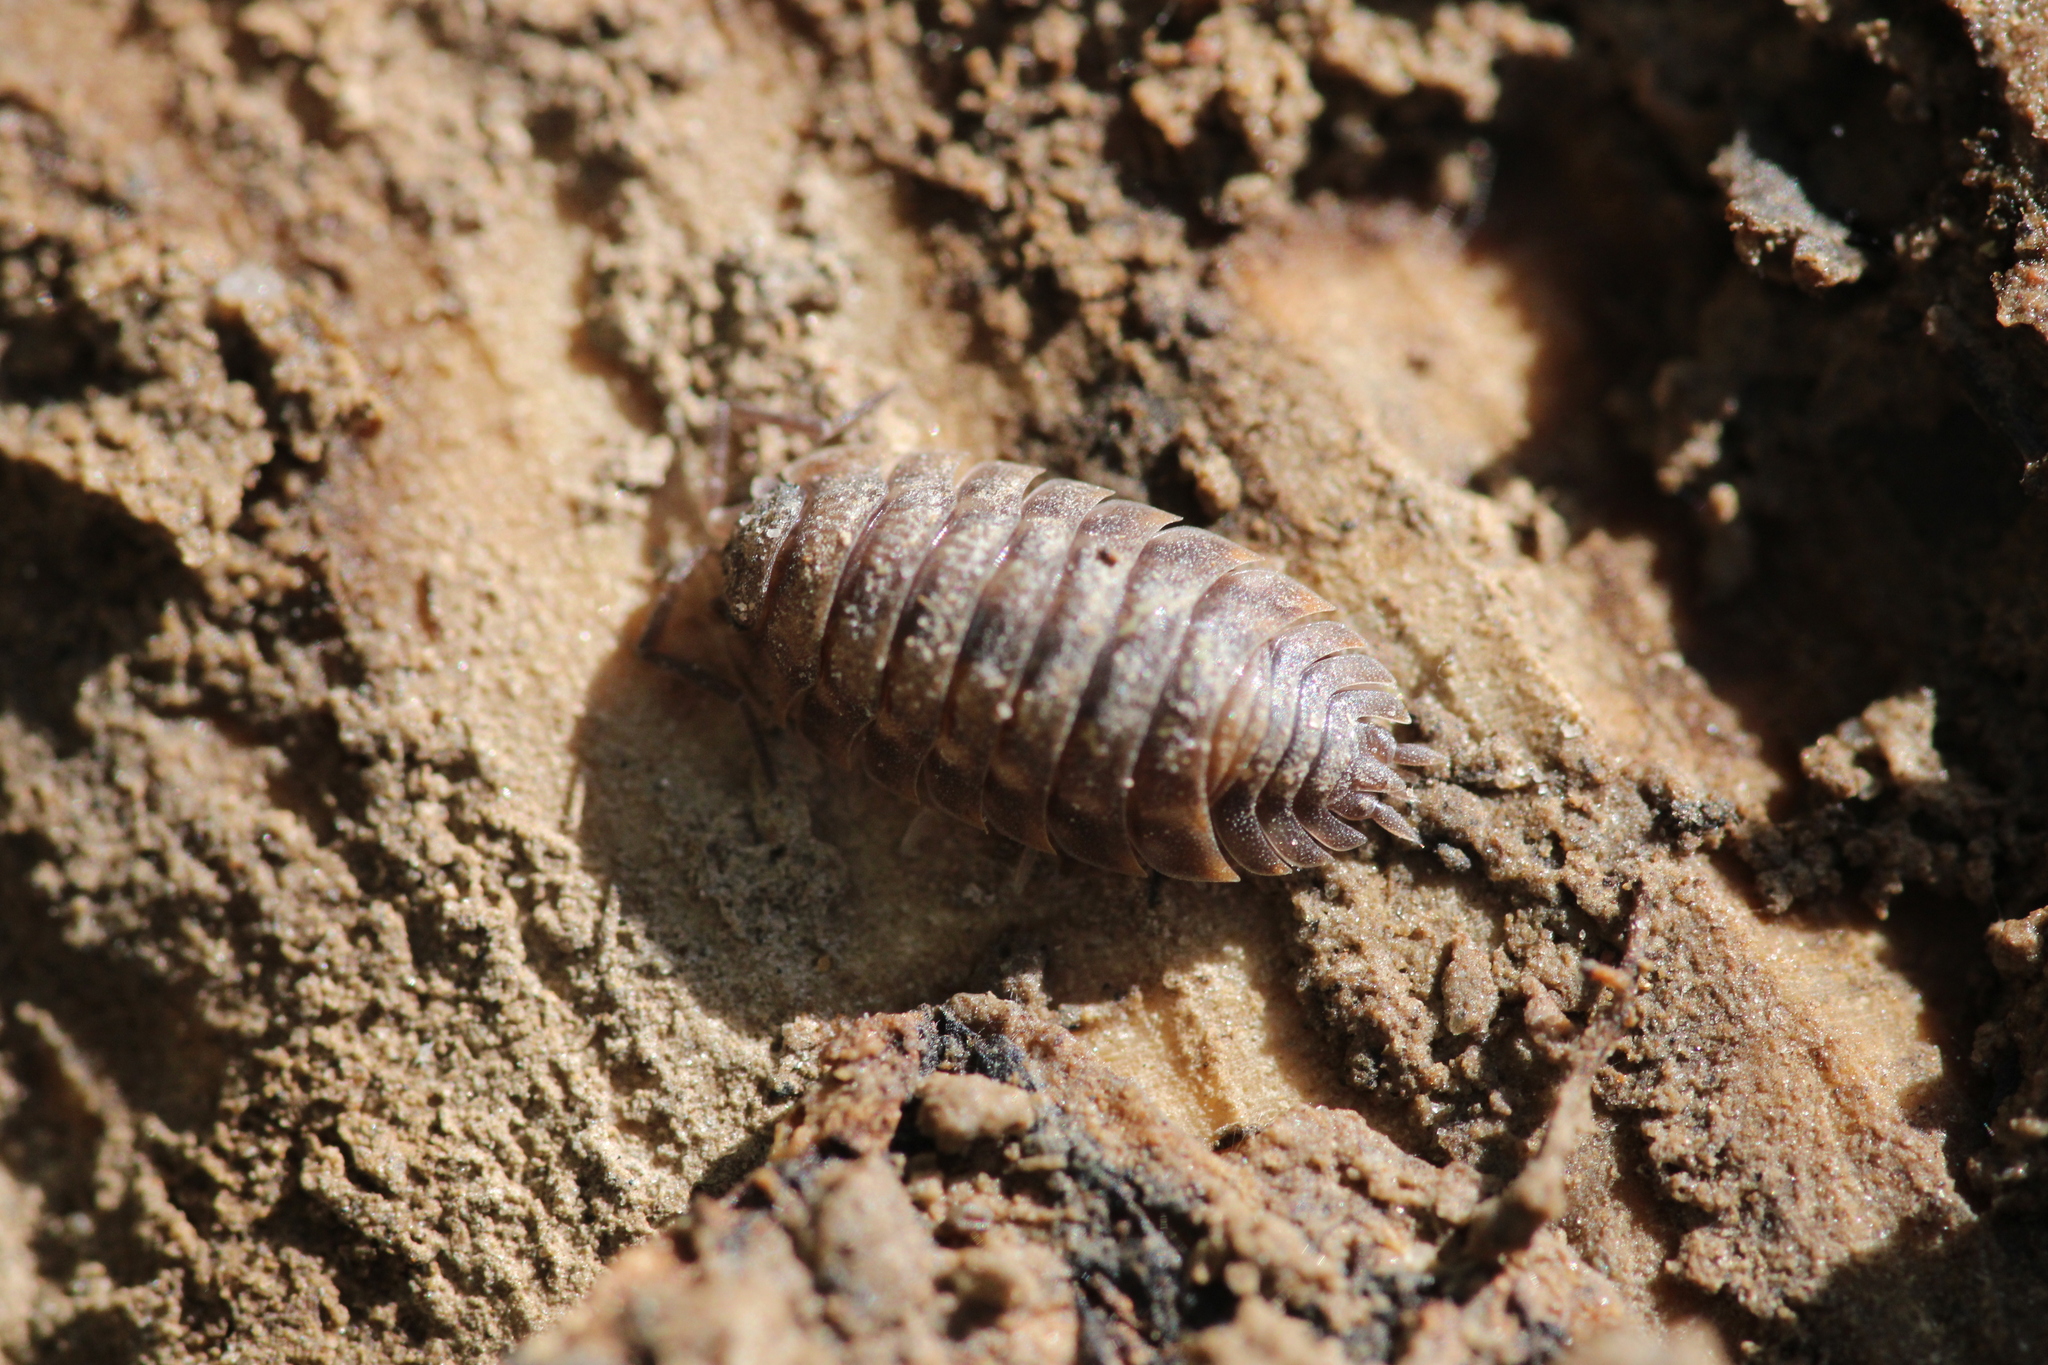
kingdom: Animalia
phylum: Arthropoda
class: Malacostraca
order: Isopoda
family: Oniscidae
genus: Oniscus
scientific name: Oniscus asellus
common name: Common shiny woodlouse
